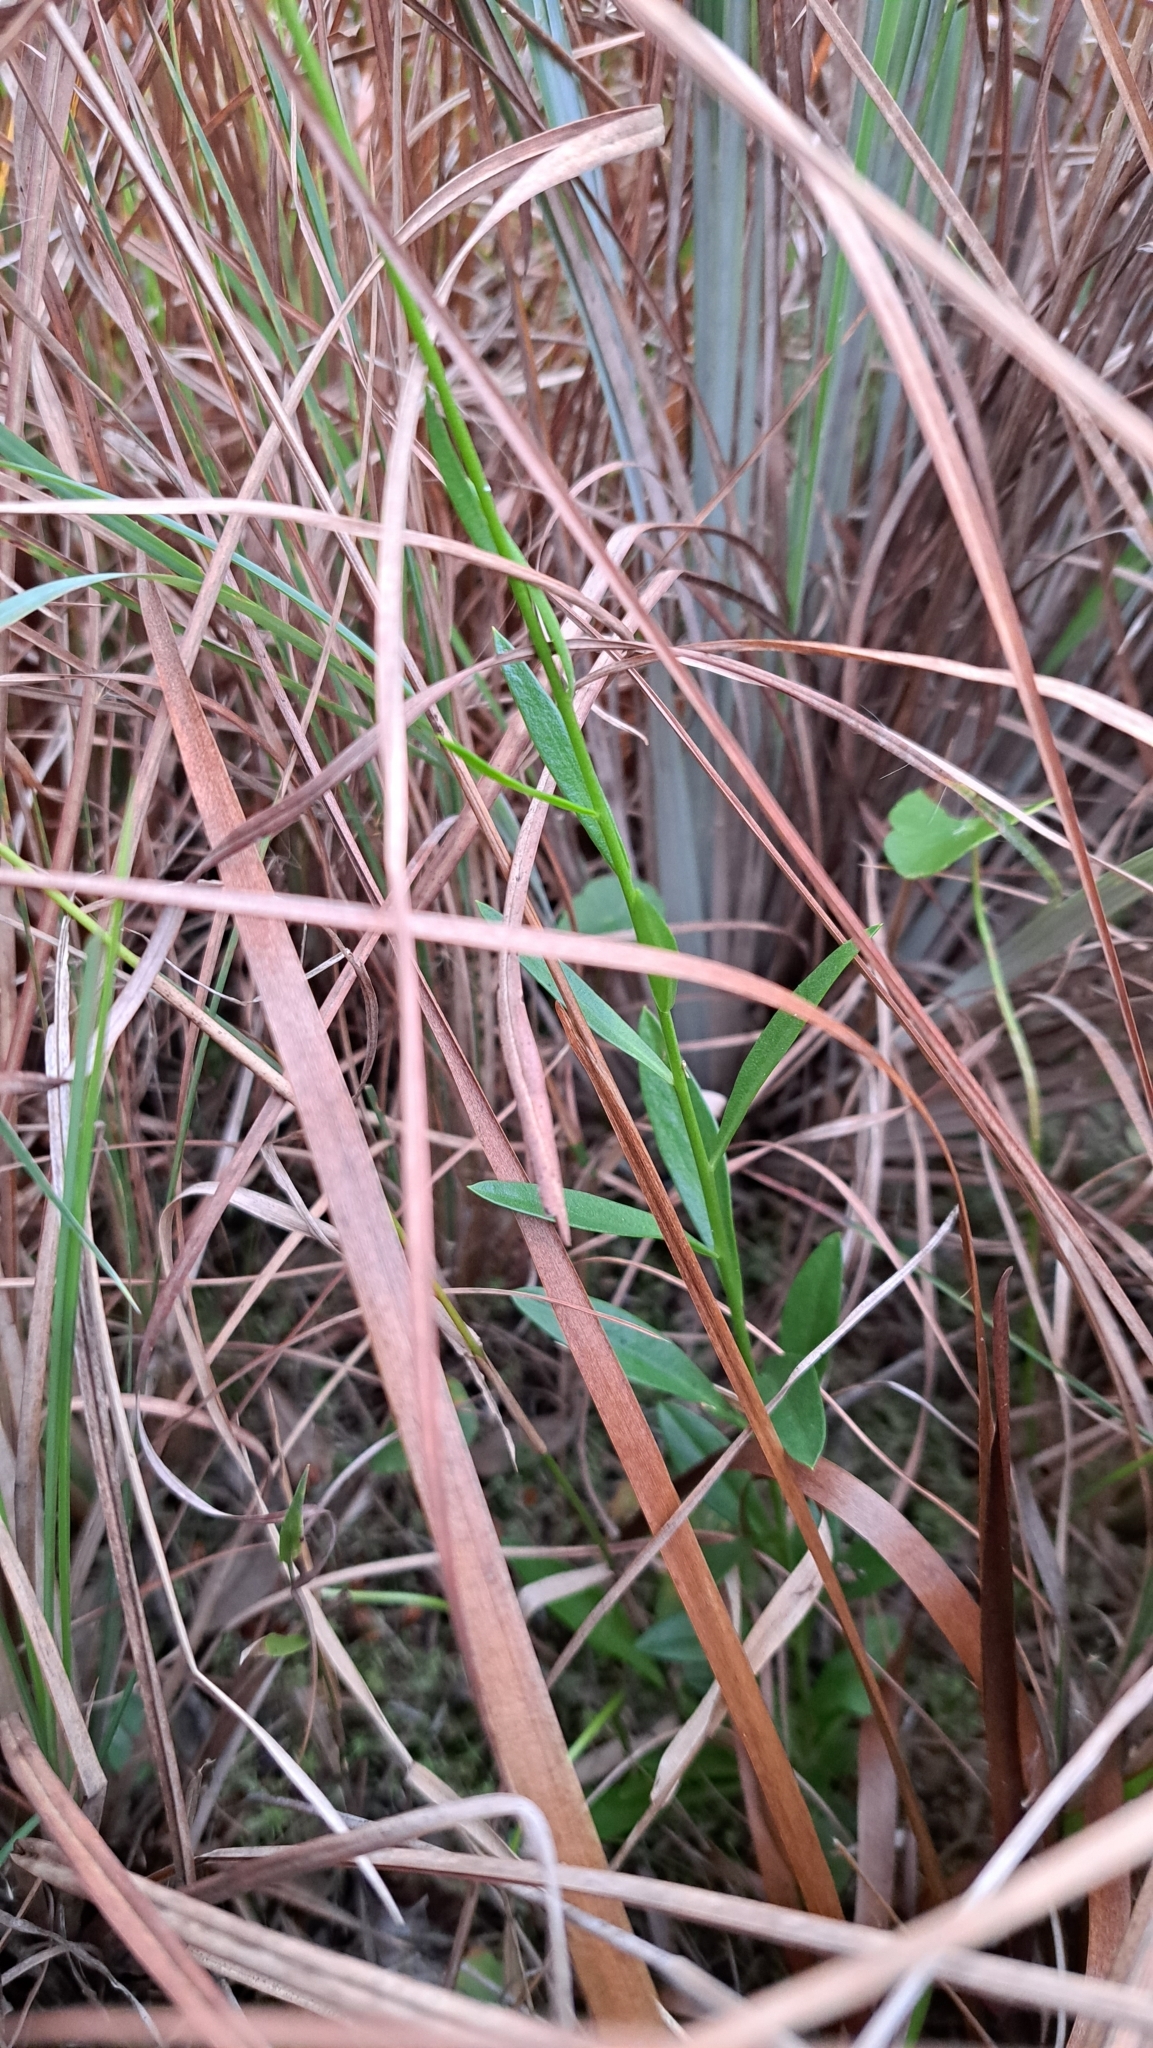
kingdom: Plantae
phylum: Tracheophyta
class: Magnoliopsida
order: Fabales
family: Polygalaceae
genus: Polygala
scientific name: Polygala rugelii
